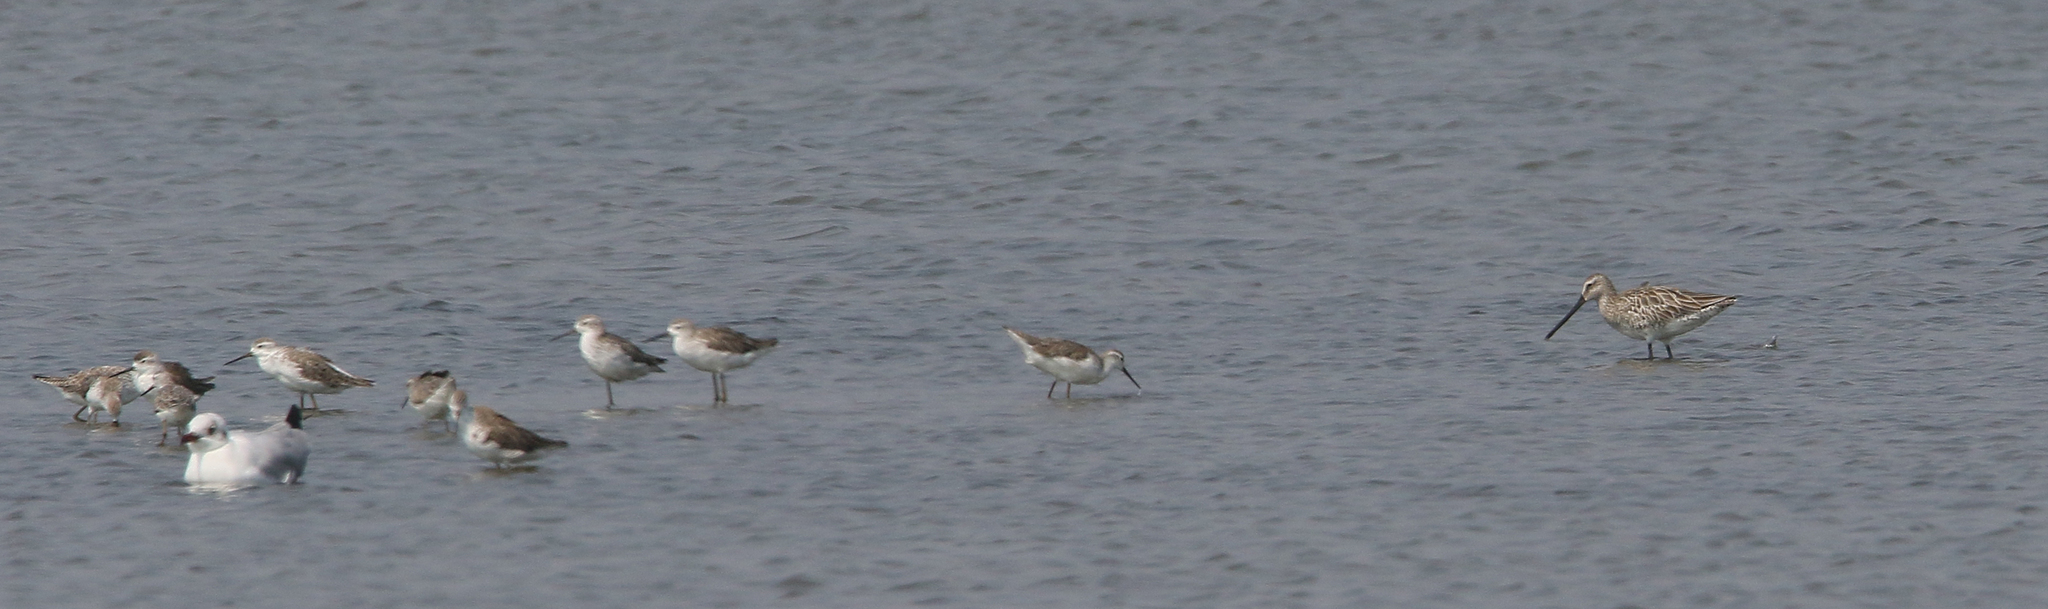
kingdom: Animalia
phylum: Chordata
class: Aves
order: Charadriiformes
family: Scolopacidae
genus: Limnodromus
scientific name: Limnodromus semipalmatus
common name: Asian dowitcher
